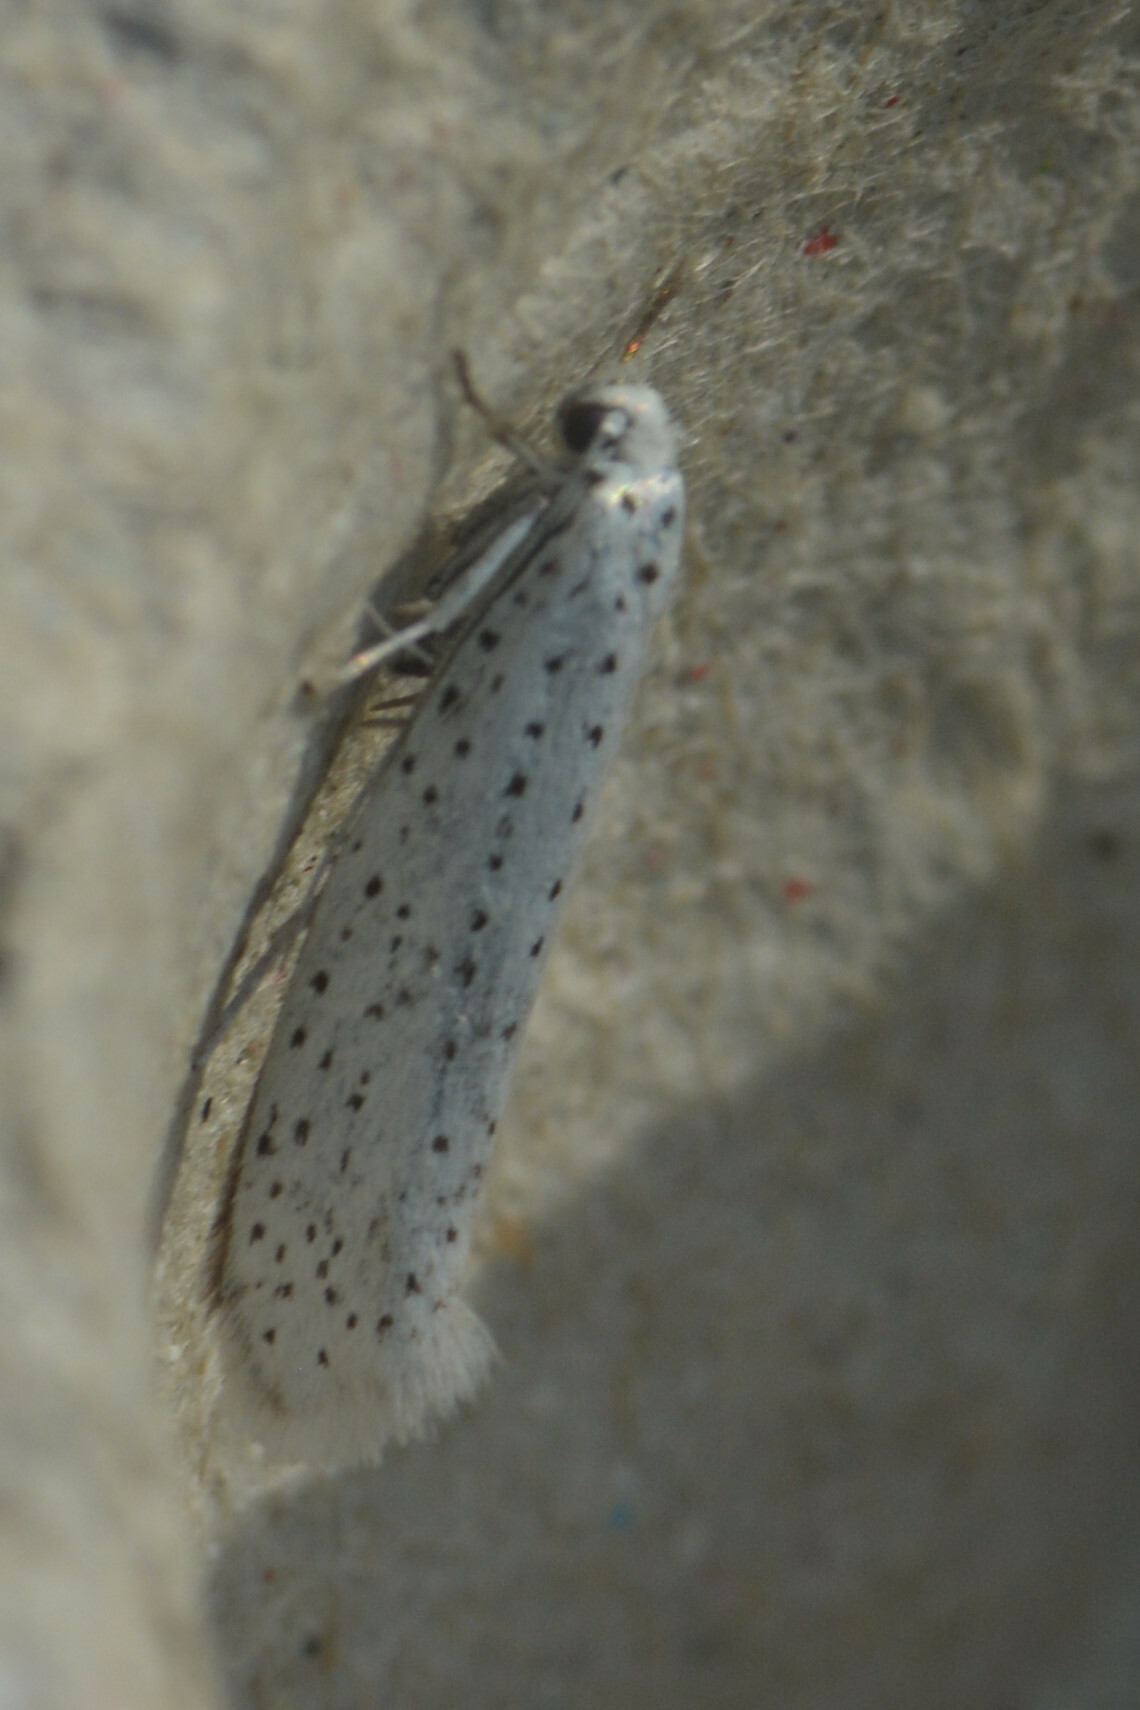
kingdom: Animalia
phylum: Arthropoda
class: Insecta
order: Lepidoptera
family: Yponomeutidae
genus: Yponomeuta
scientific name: Yponomeuta evonymella
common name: Bird-cherry ermine
